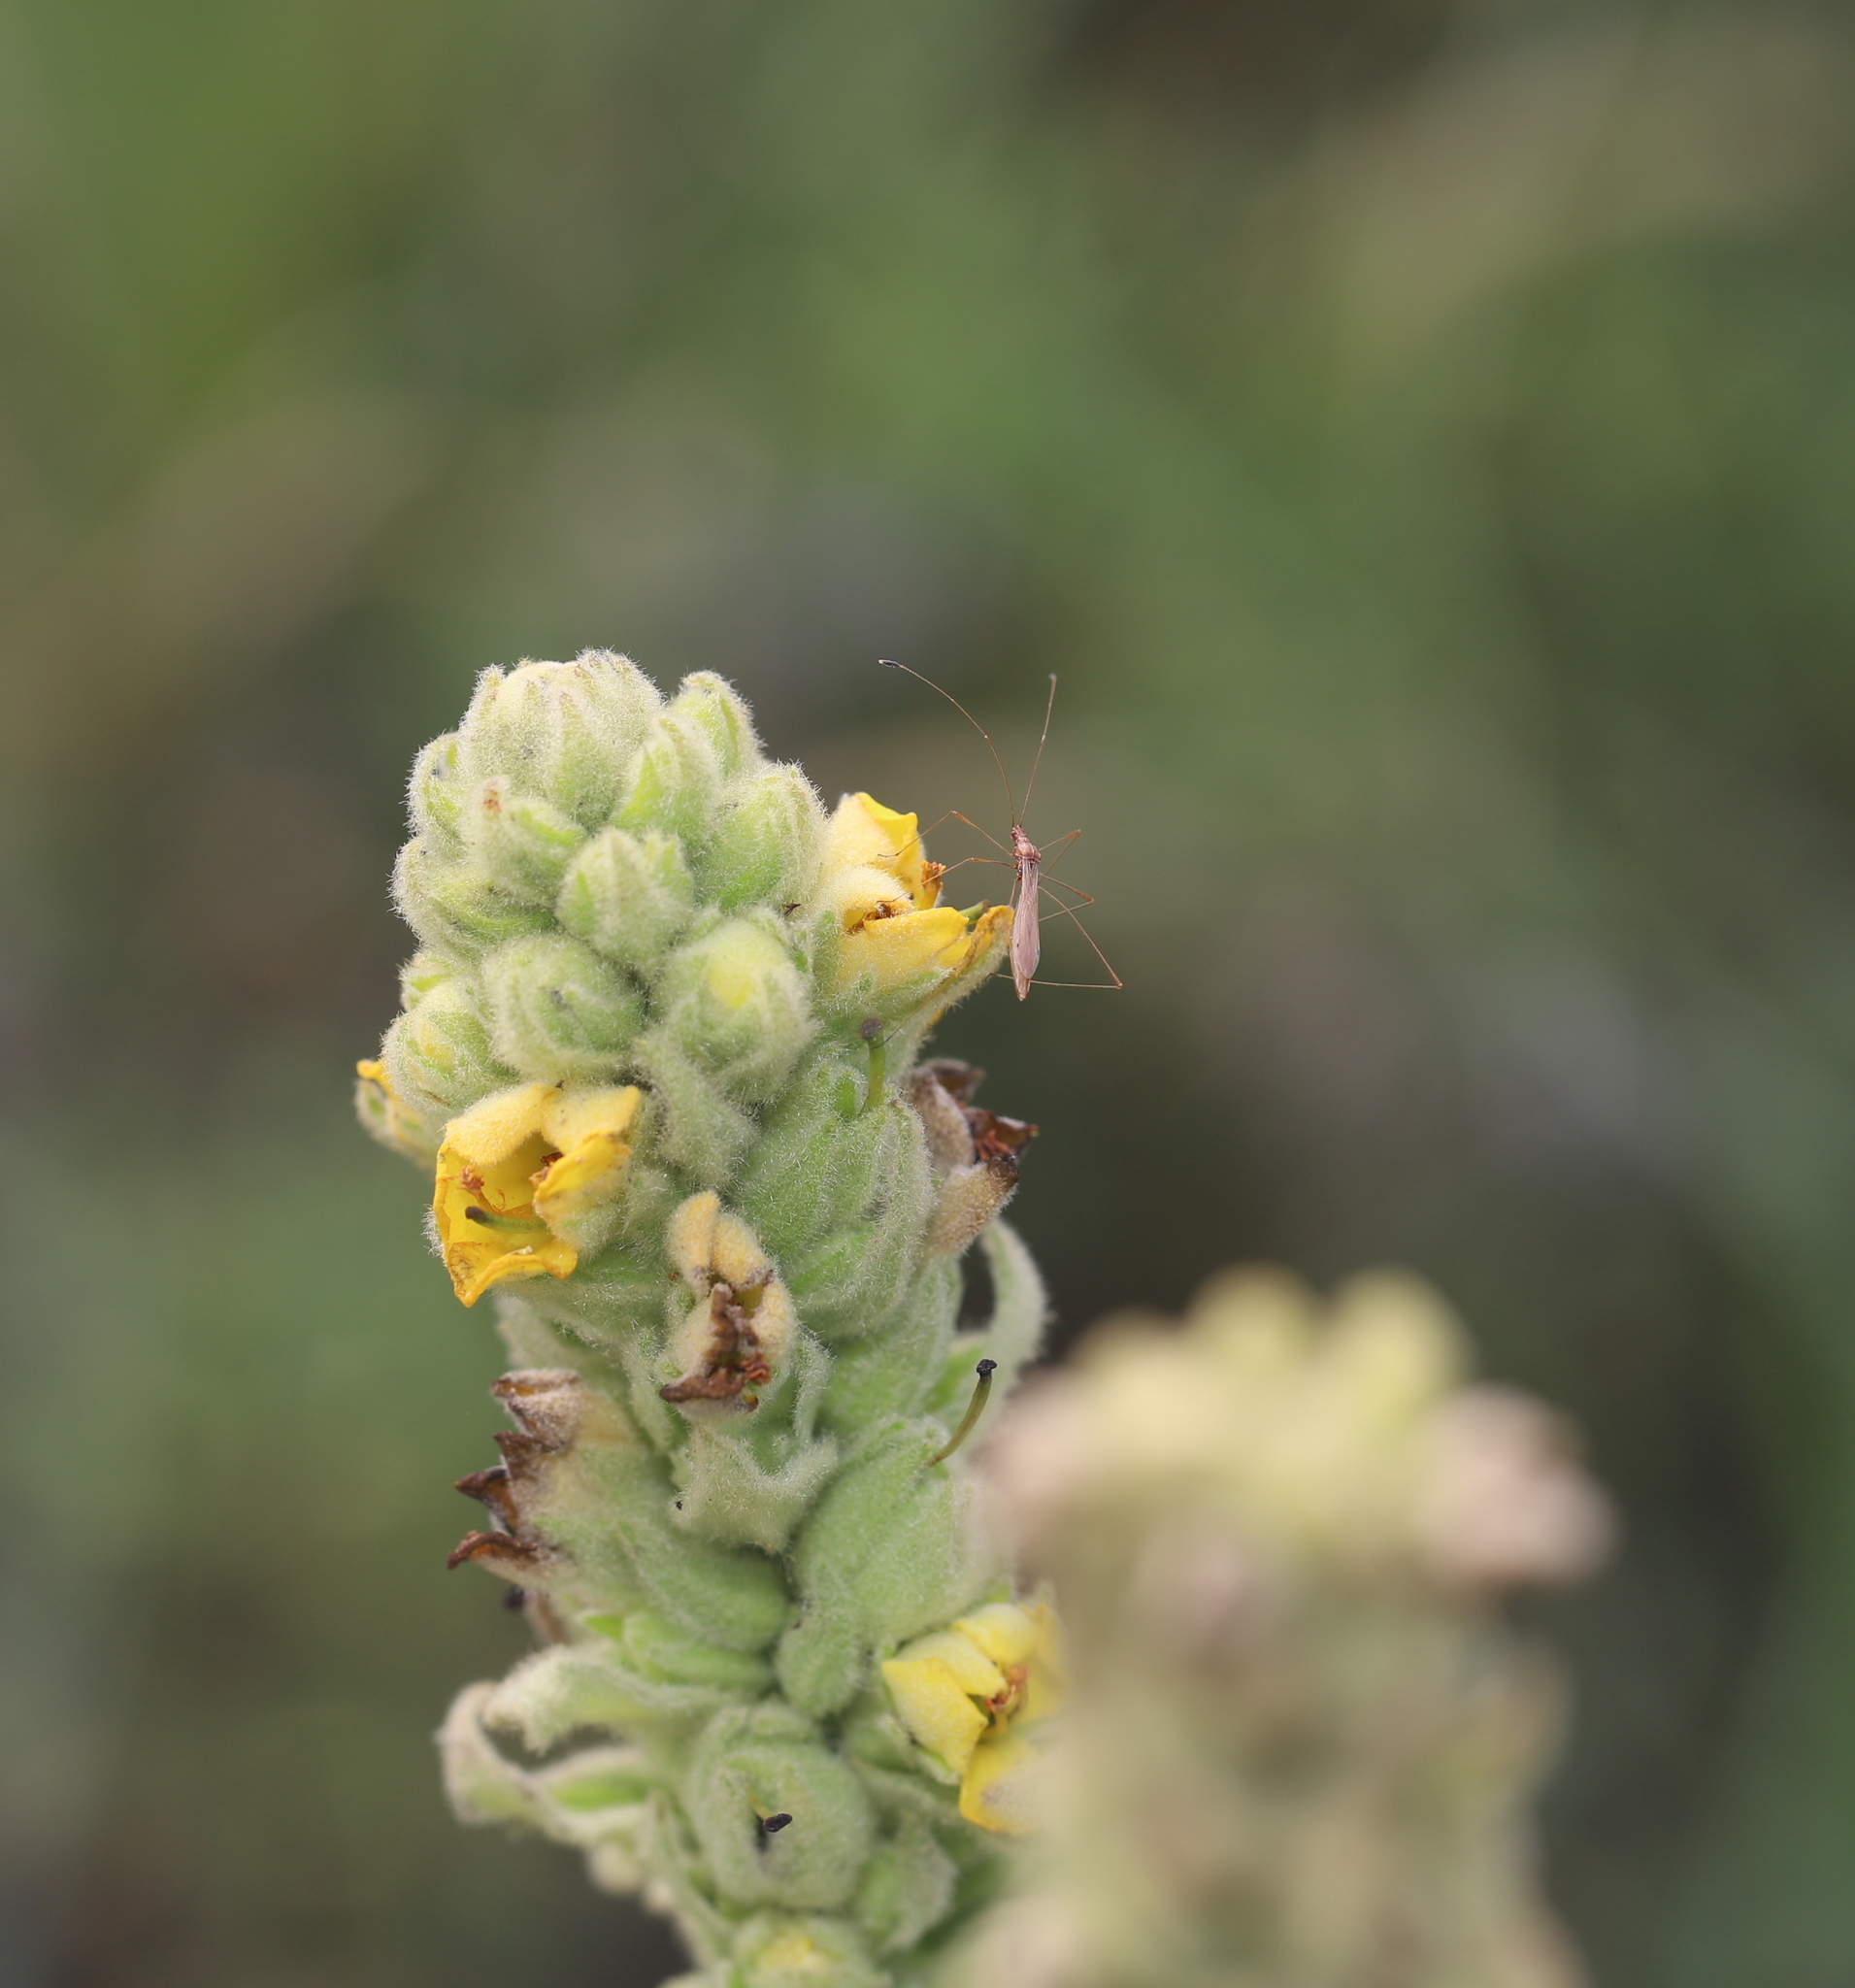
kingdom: Plantae
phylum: Tracheophyta
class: Magnoliopsida
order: Lamiales
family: Scrophulariaceae
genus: Verbascum
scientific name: Verbascum thapsus
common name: Common mullein
